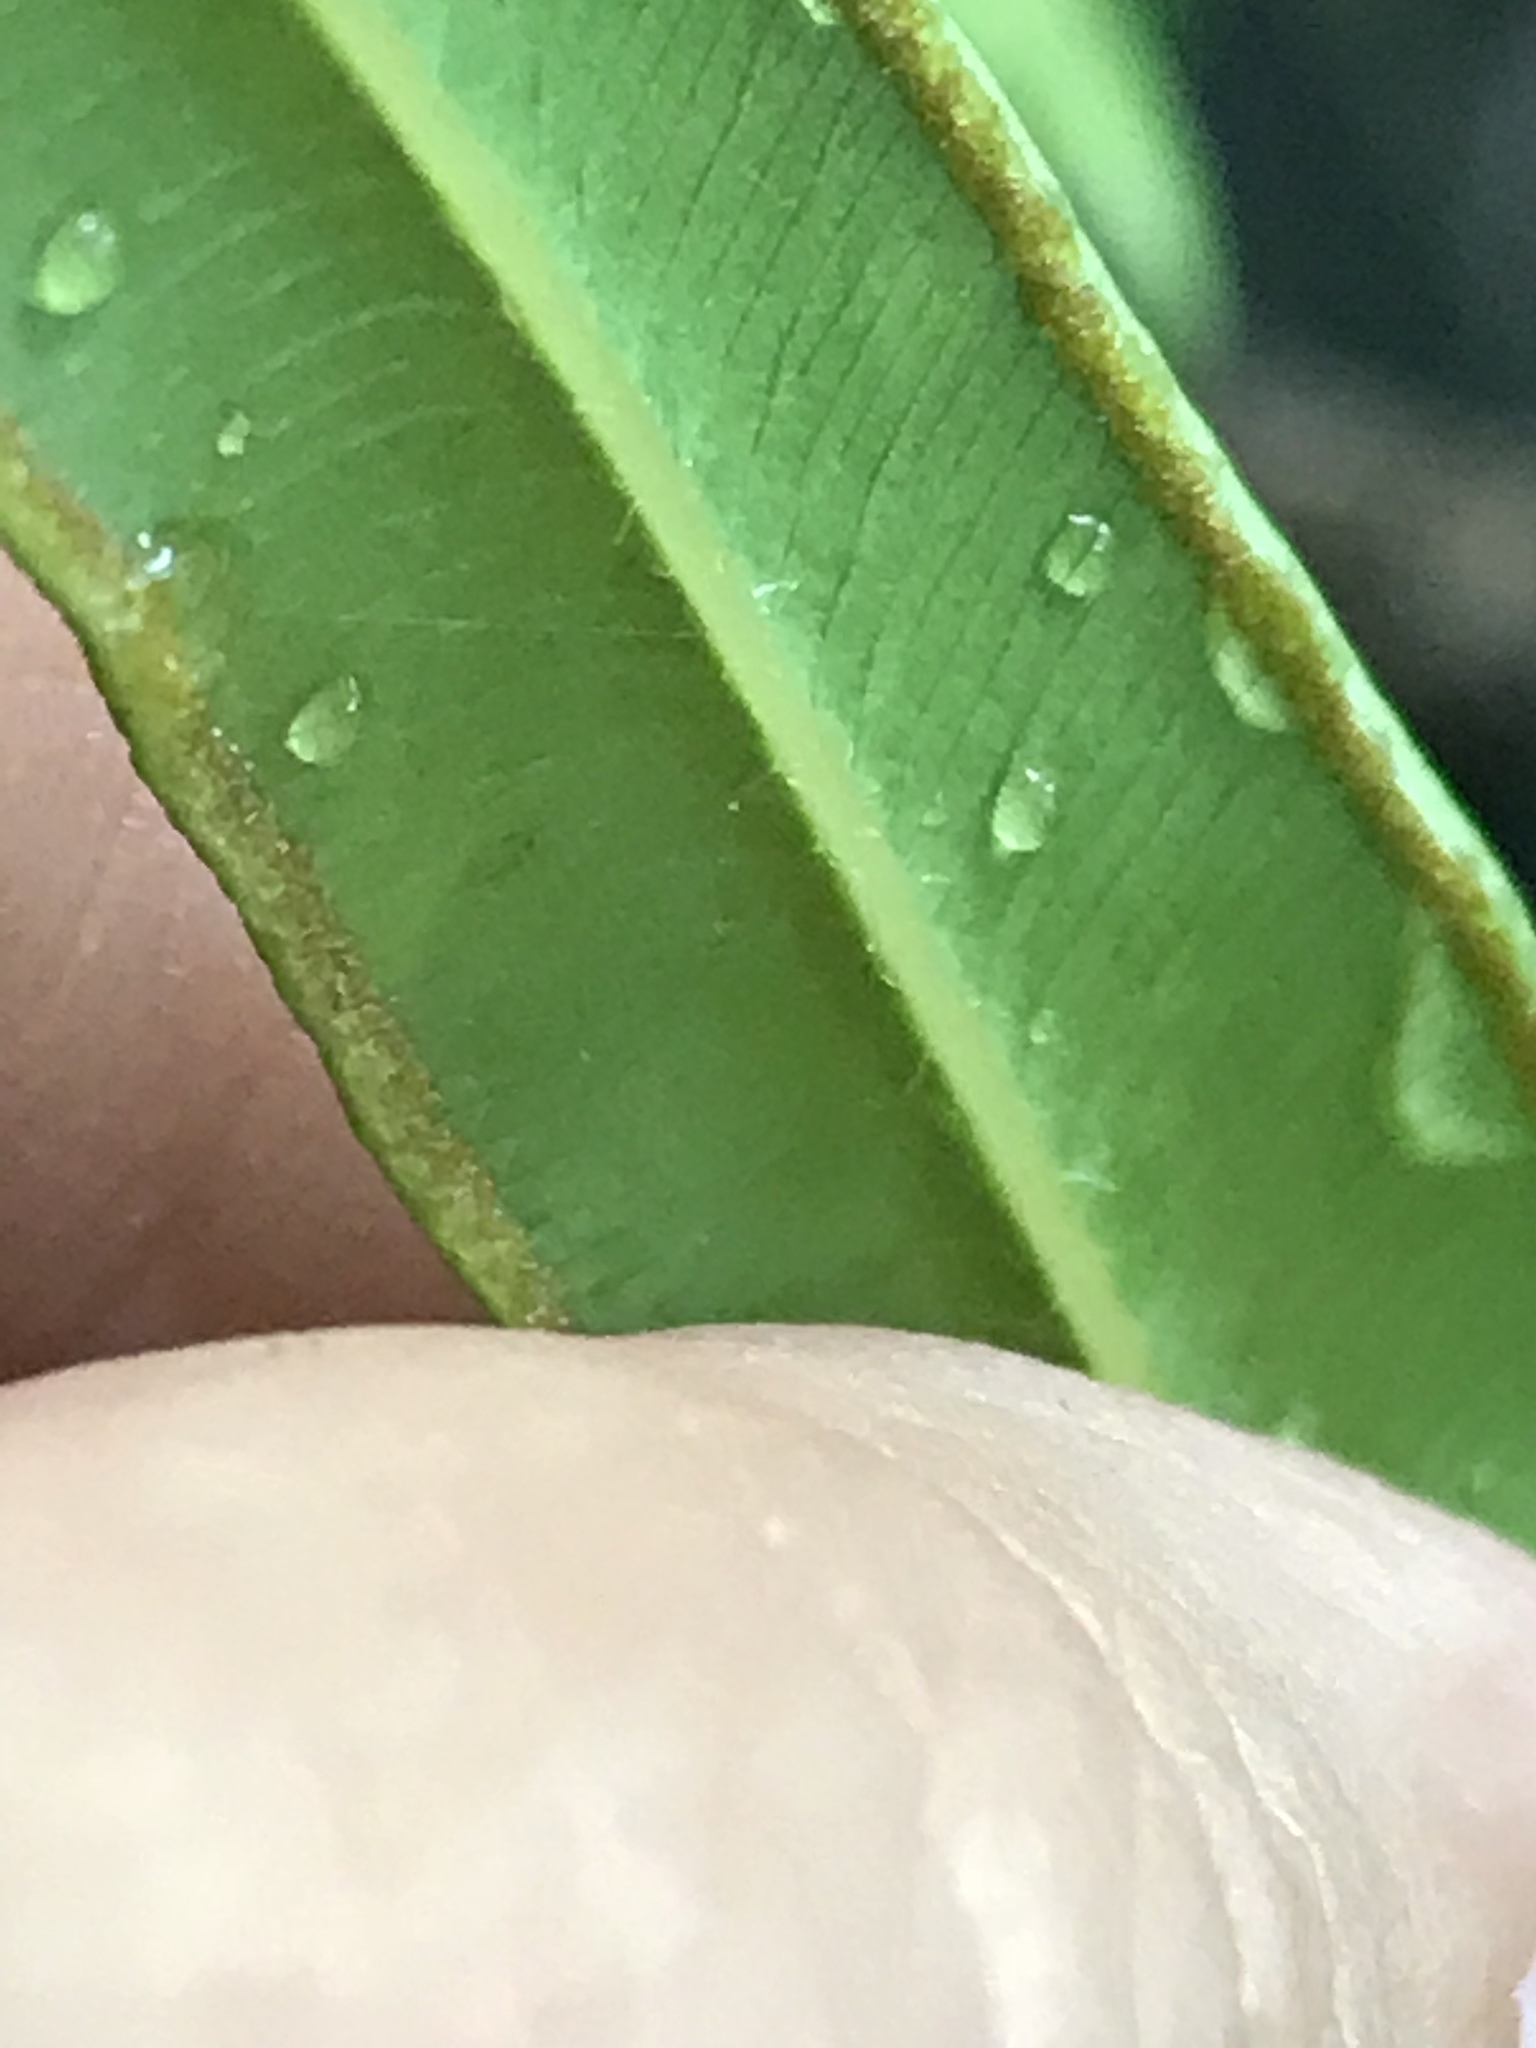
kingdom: Plantae
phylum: Tracheophyta
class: Polypodiopsida
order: Polypodiales
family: Pteridaceae
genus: Pteris
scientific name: Pteris vittata
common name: Ladder brake
